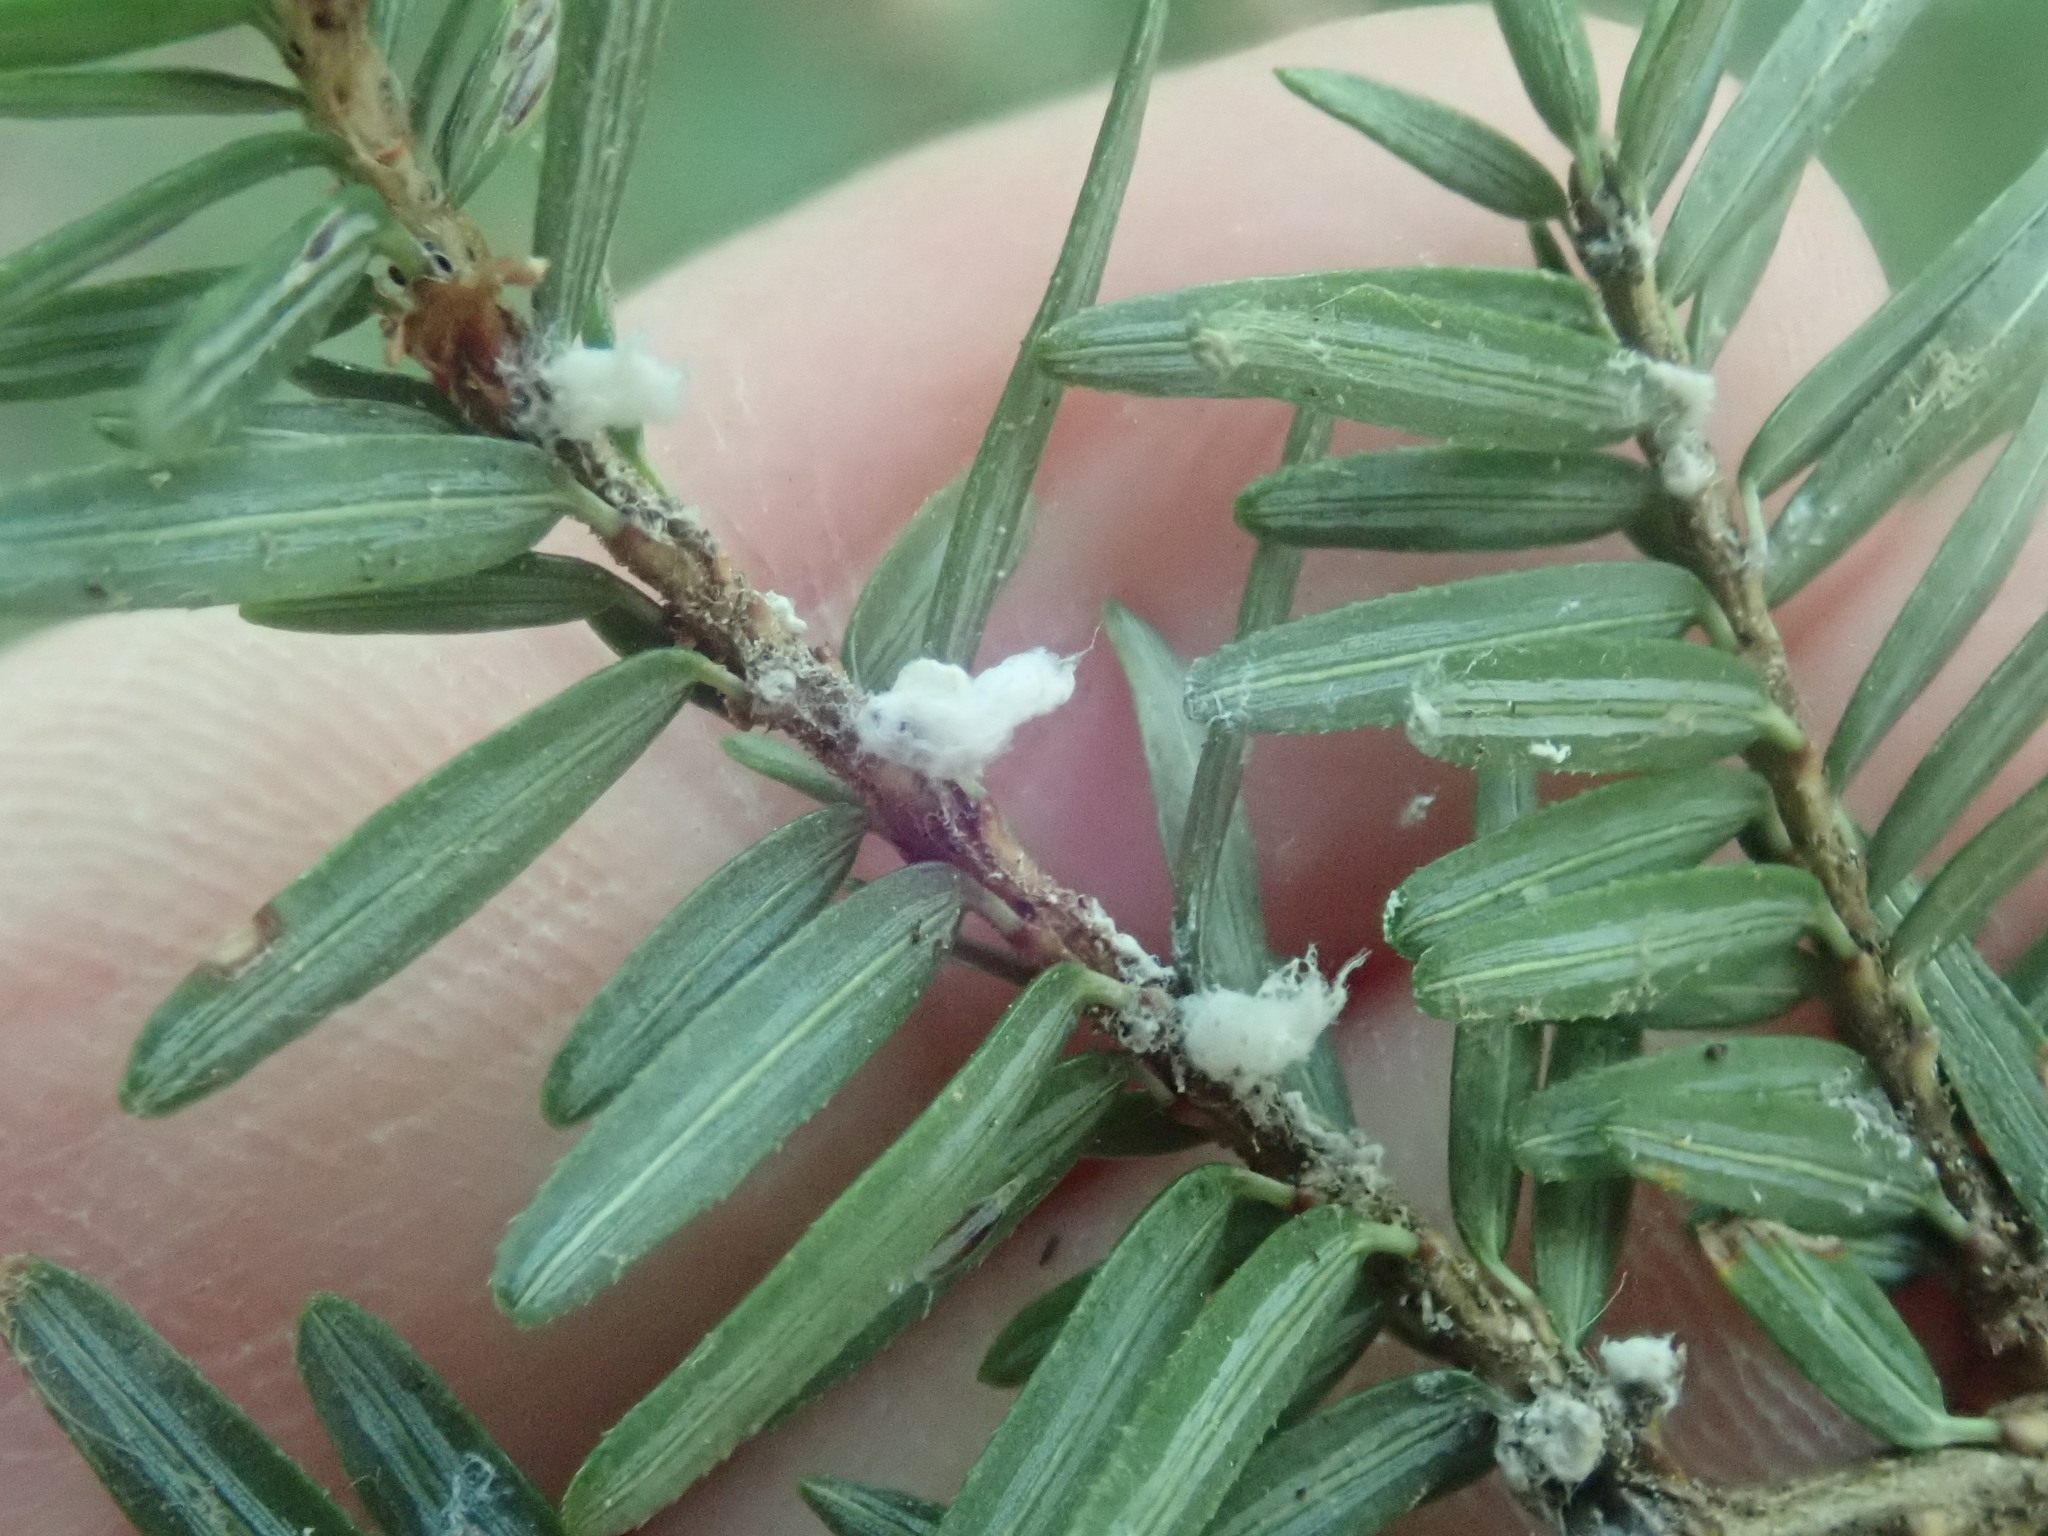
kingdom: Animalia
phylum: Arthropoda
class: Insecta
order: Hemiptera
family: Adelgidae
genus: Adelges
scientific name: Adelges tsugae
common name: Hemlock woolly adelgid
